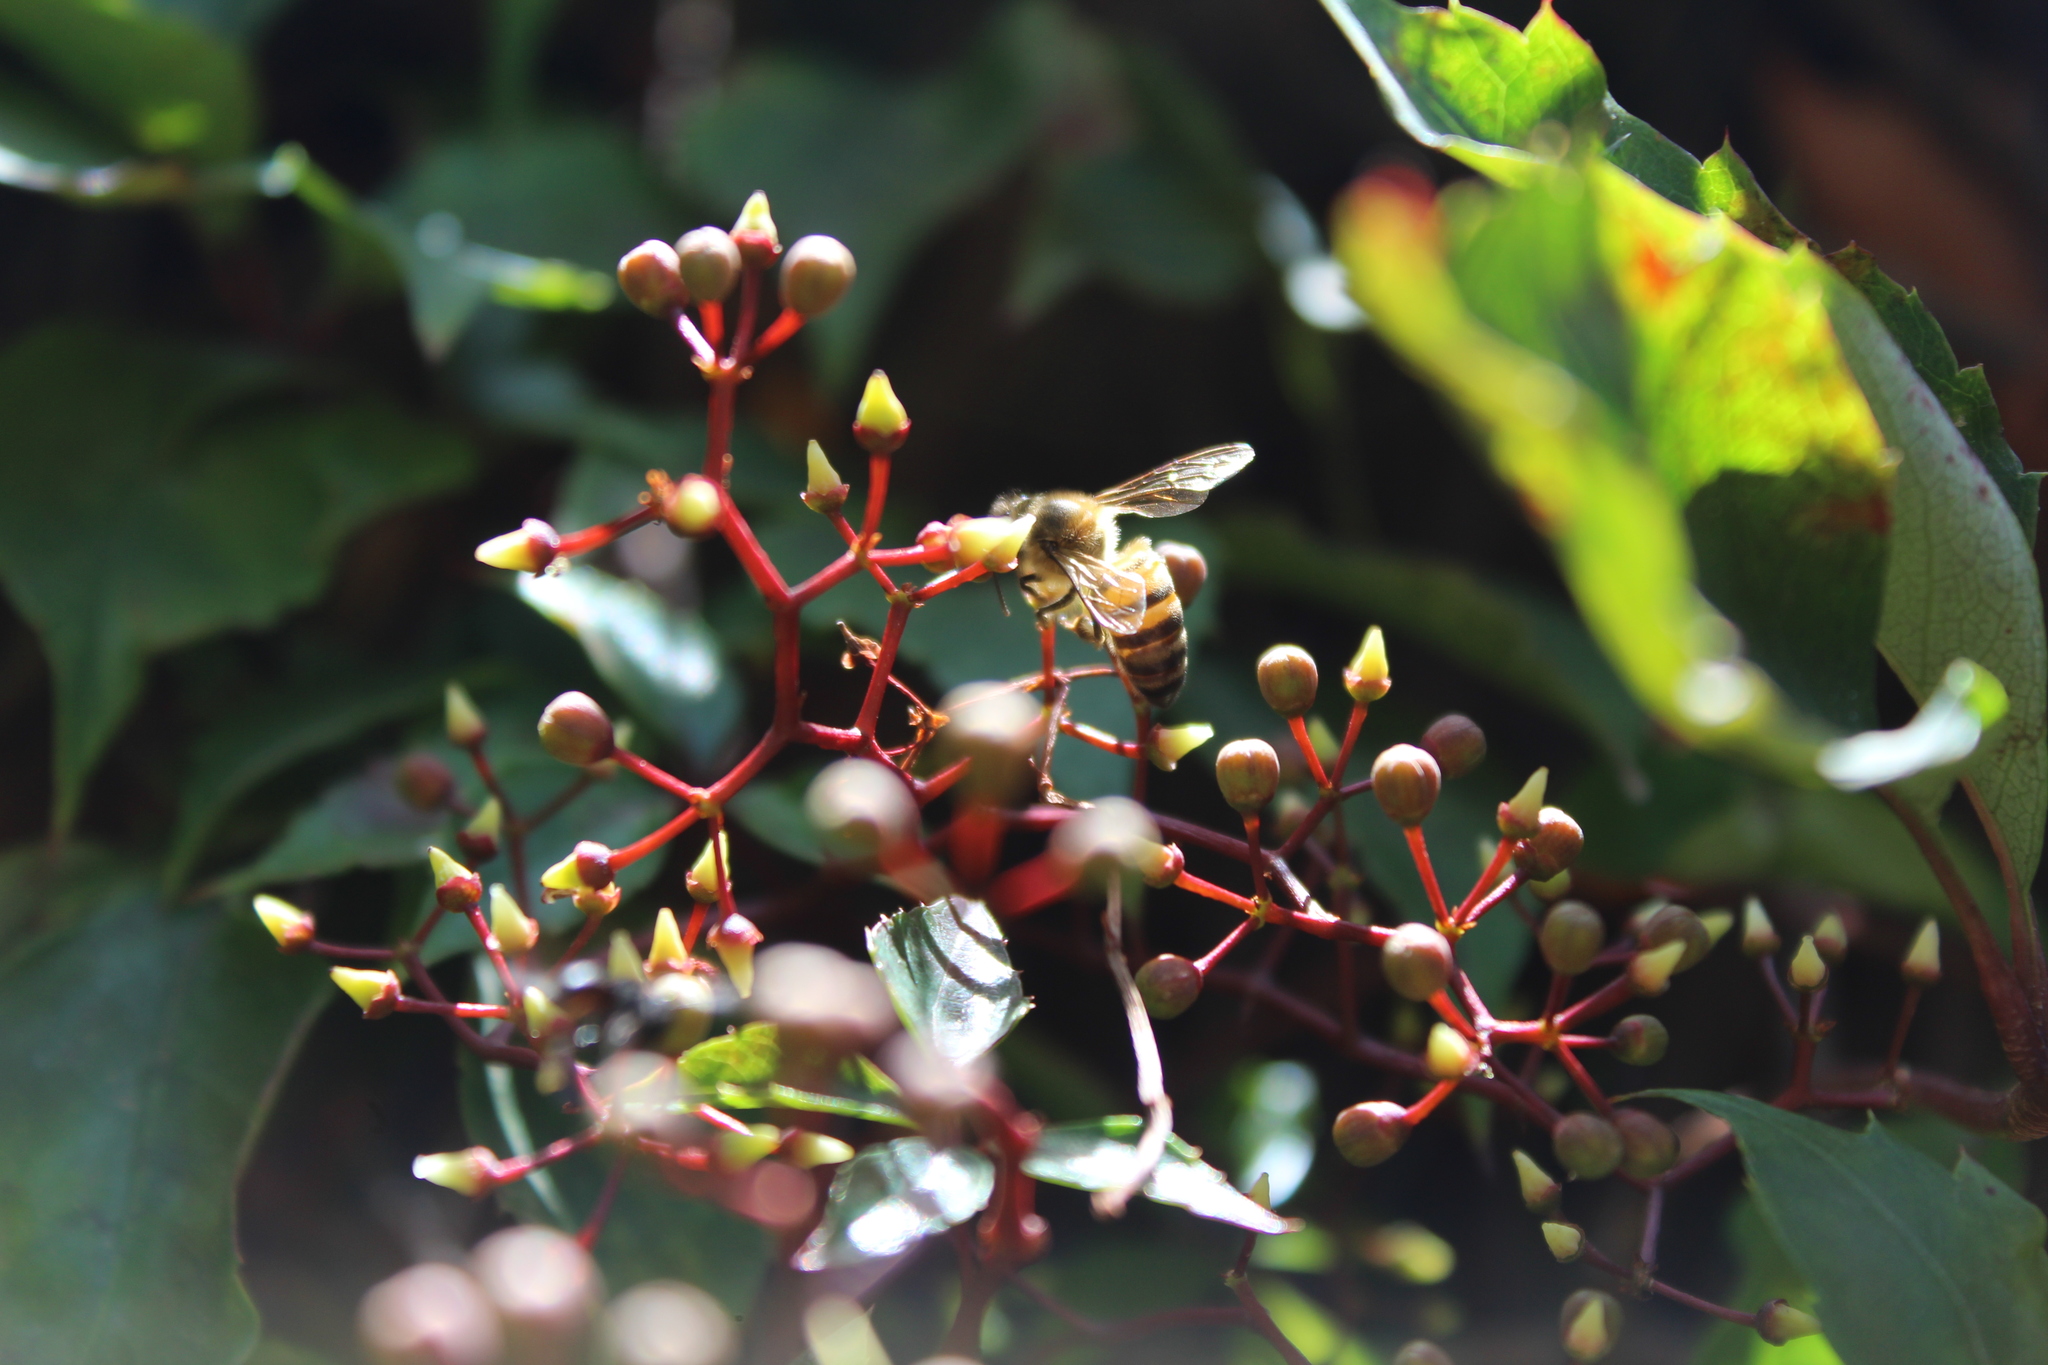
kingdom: Animalia
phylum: Arthropoda
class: Insecta
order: Hymenoptera
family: Apidae
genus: Apis
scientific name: Apis mellifera
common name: Honey bee
